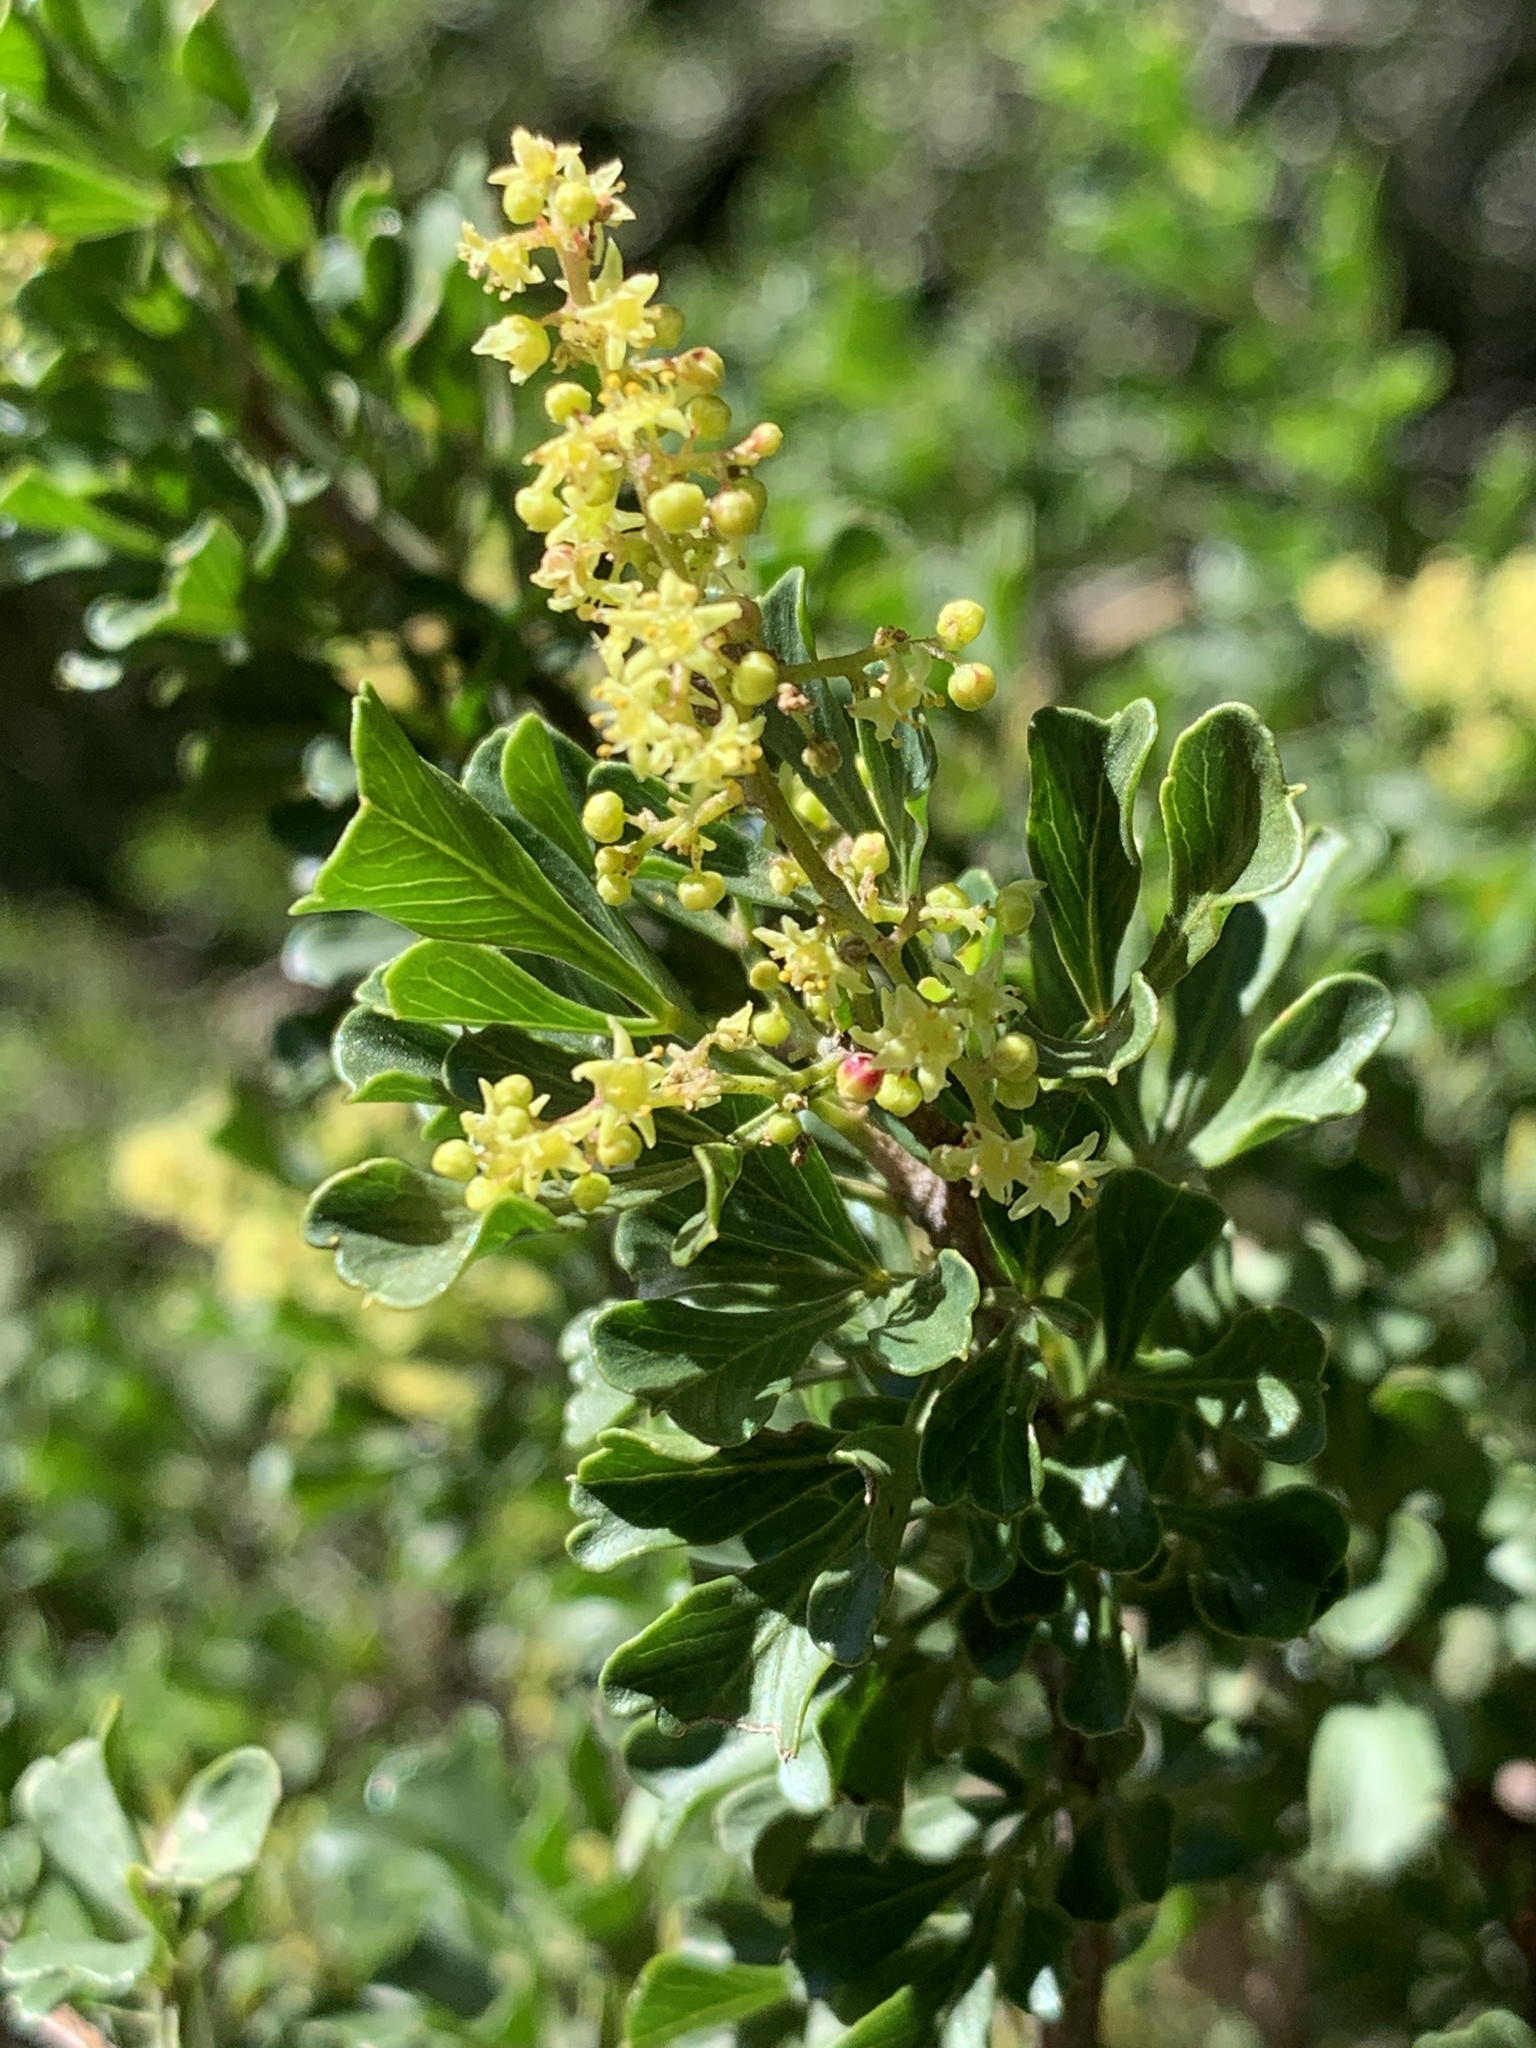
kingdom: Plantae
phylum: Tracheophyta
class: Magnoliopsida
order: Sapindales
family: Anacardiaceae
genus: Searsia
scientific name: Searsia burchellii
